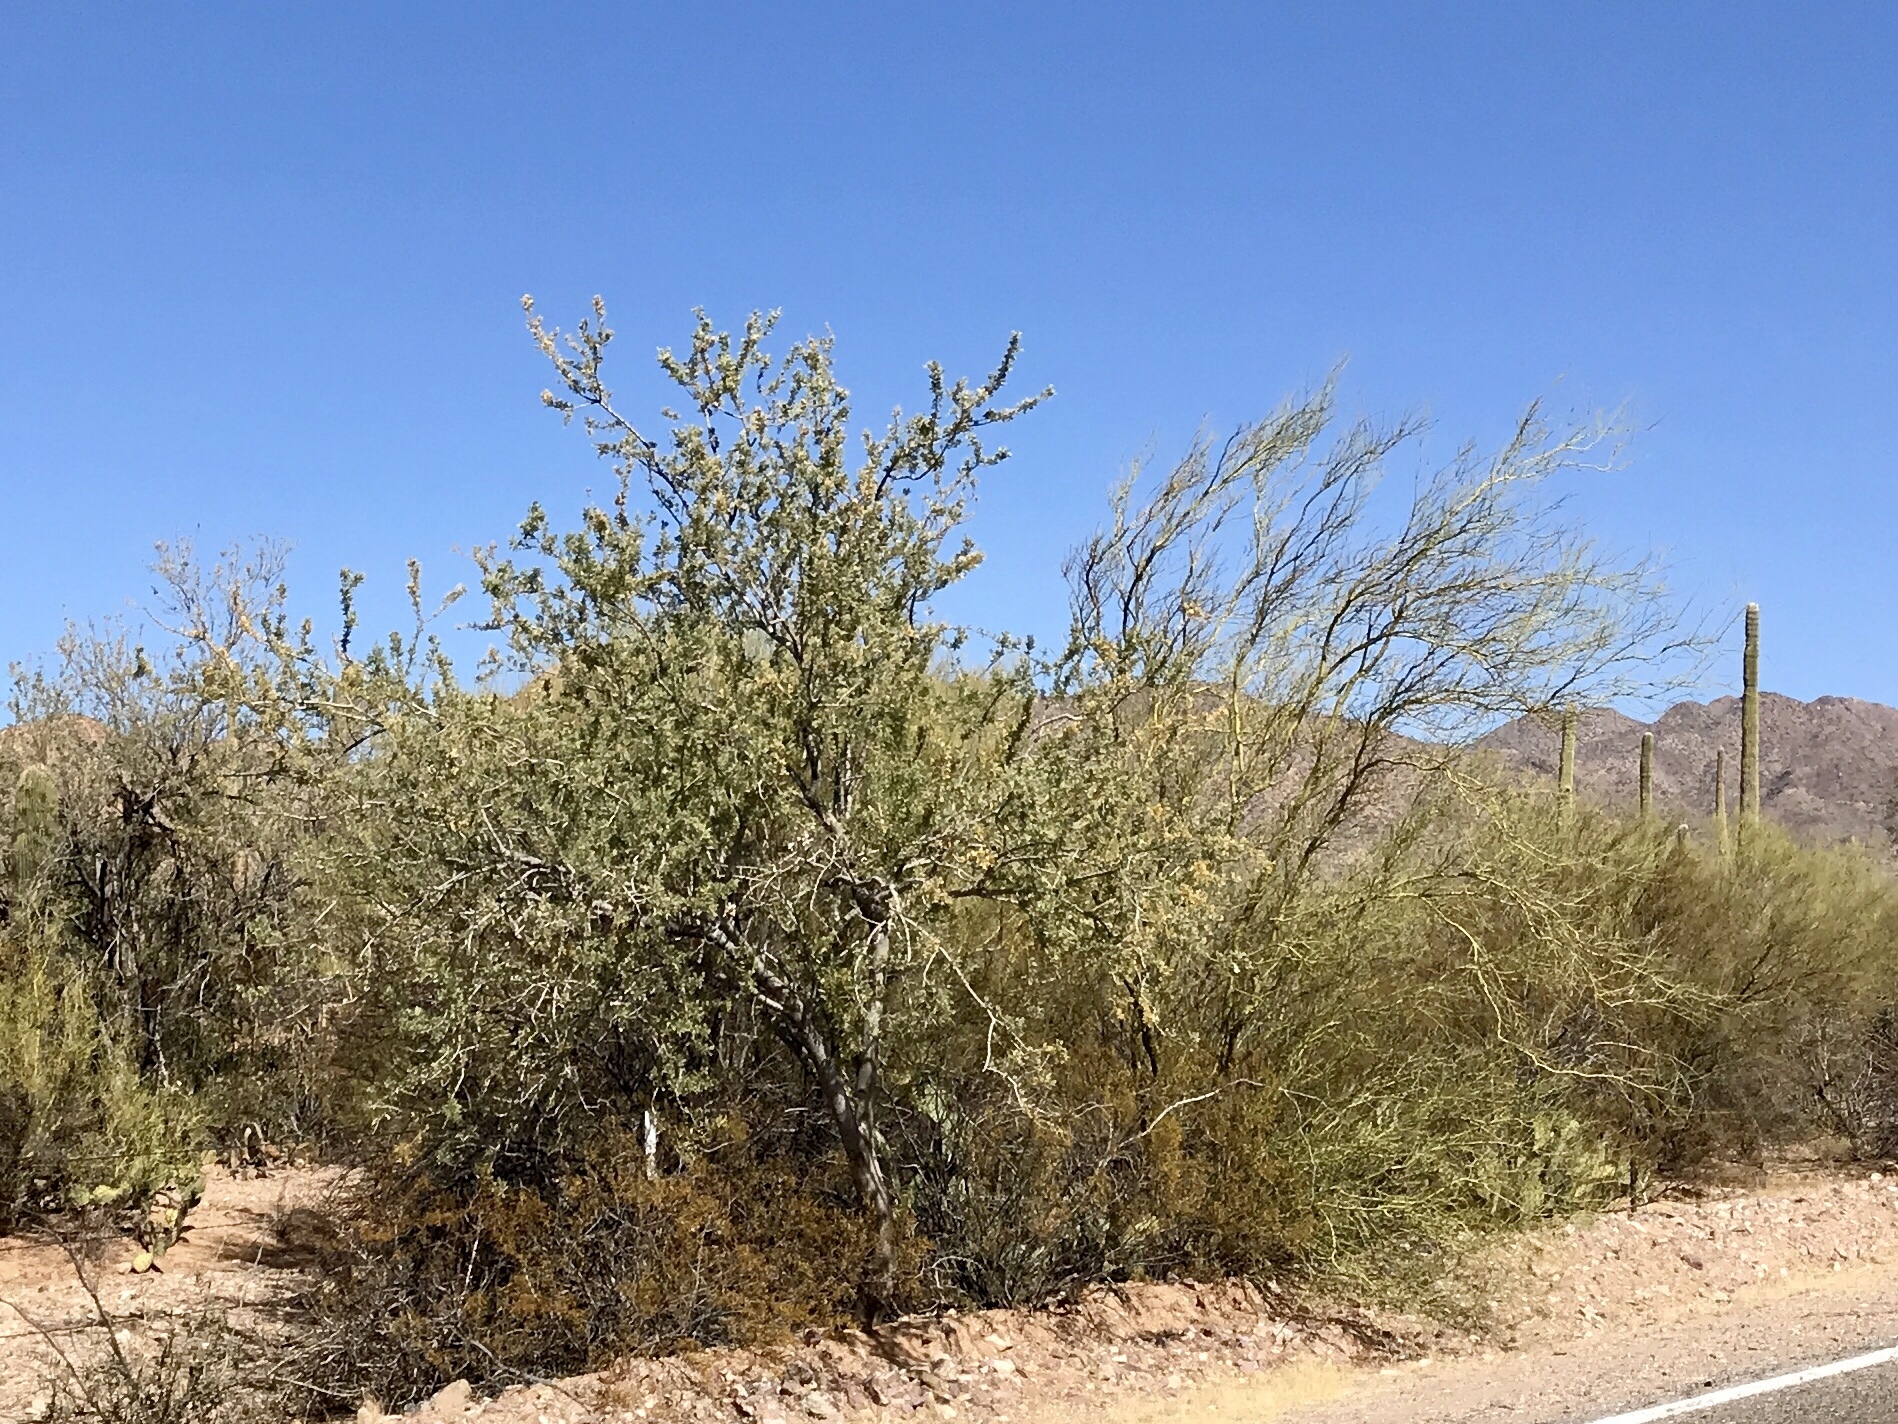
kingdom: Plantae
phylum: Tracheophyta
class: Magnoliopsida
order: Fabales
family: Fabaceae
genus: Olneya
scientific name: Olneya tesota
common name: Desert ironwood
